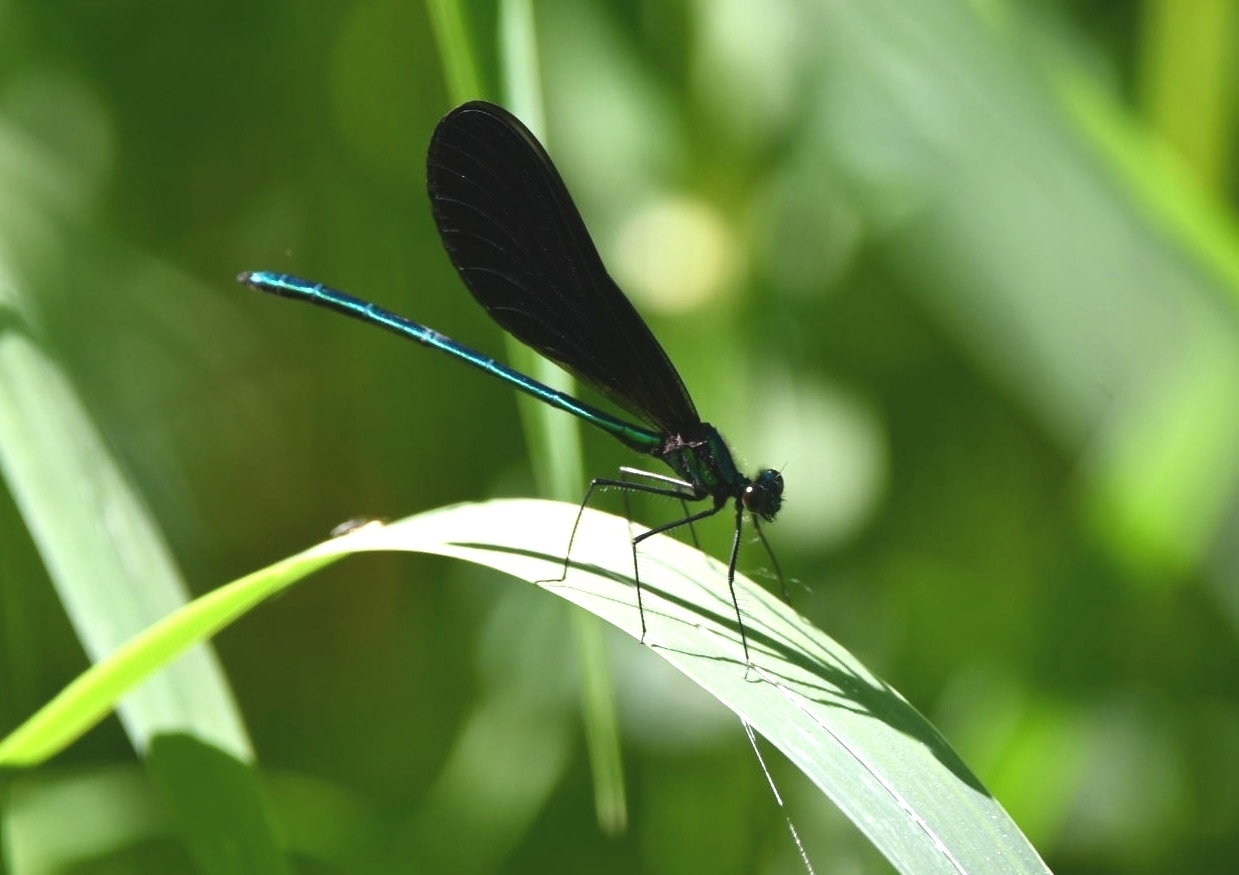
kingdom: Animalia
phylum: Arthropoda
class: Insecta
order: Odonata
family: Calopterygidae
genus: Calopteryx
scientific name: Calopteryx maculata
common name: Ebony jewelwing
